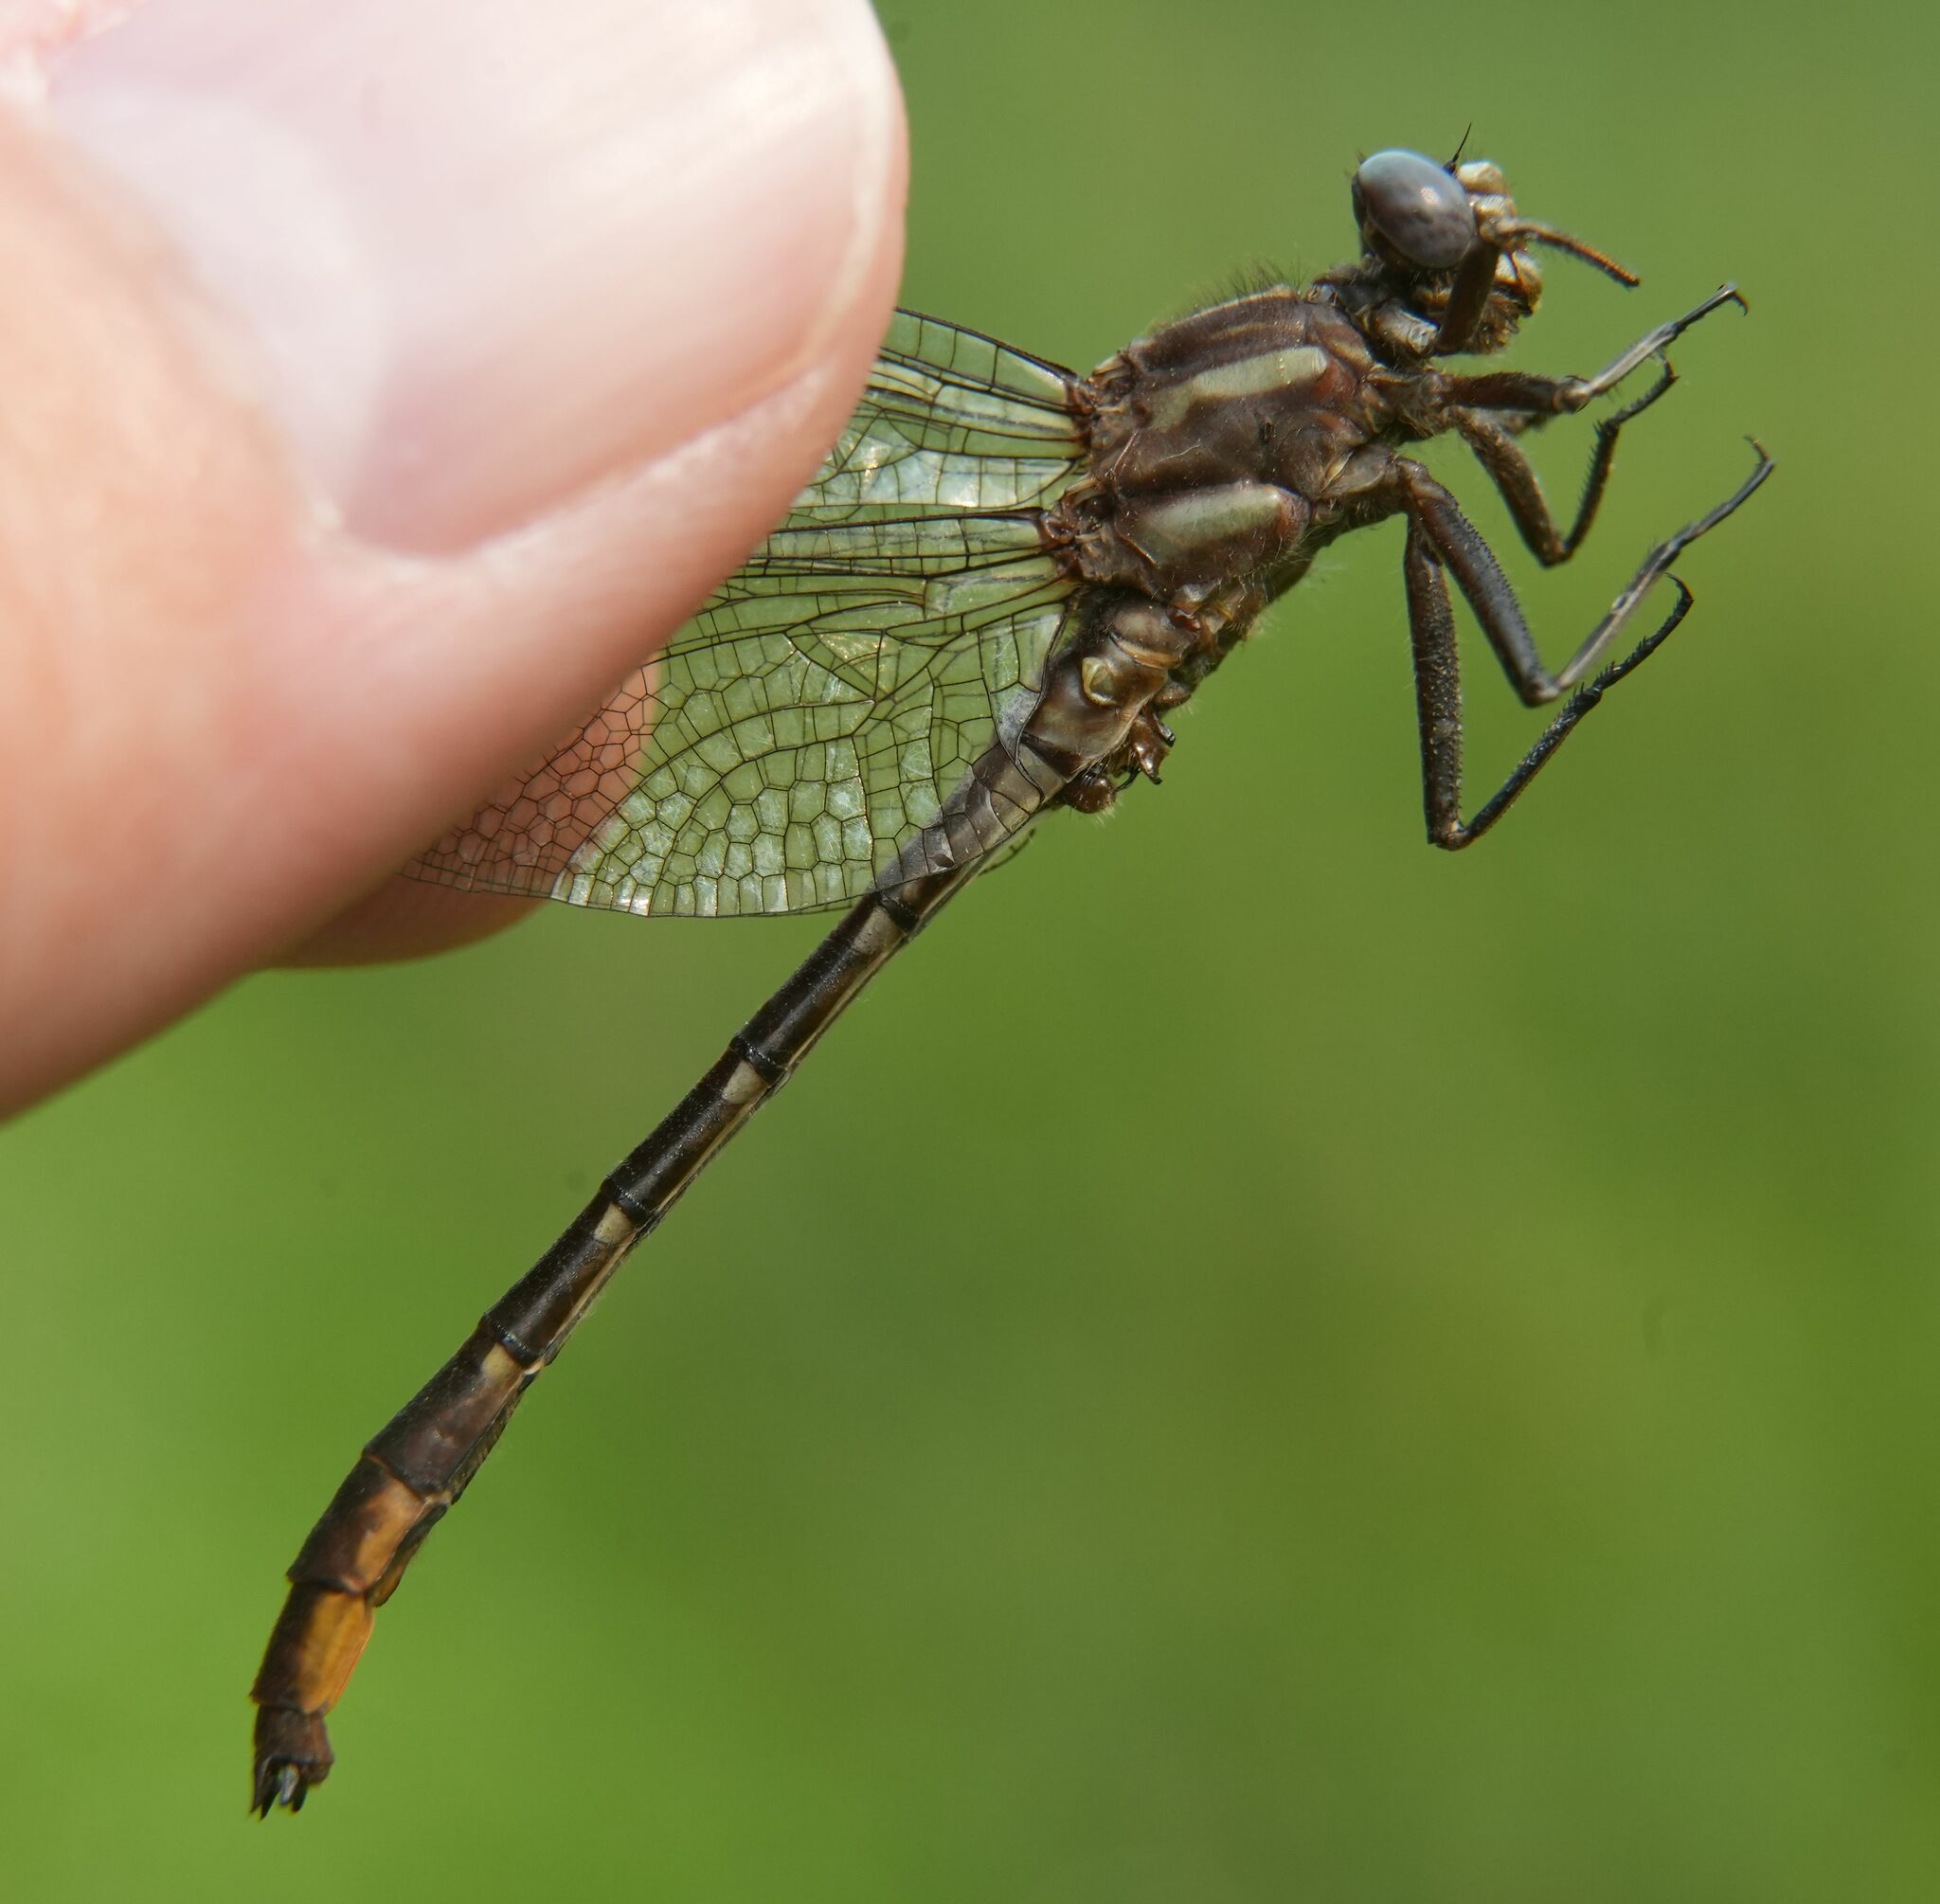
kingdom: Animalia
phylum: Arthropoda
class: Insecta
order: Odonata
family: Gomphidae
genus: Phanogomphus
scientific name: Phanogomphus exilis
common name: Lancet clubtail
